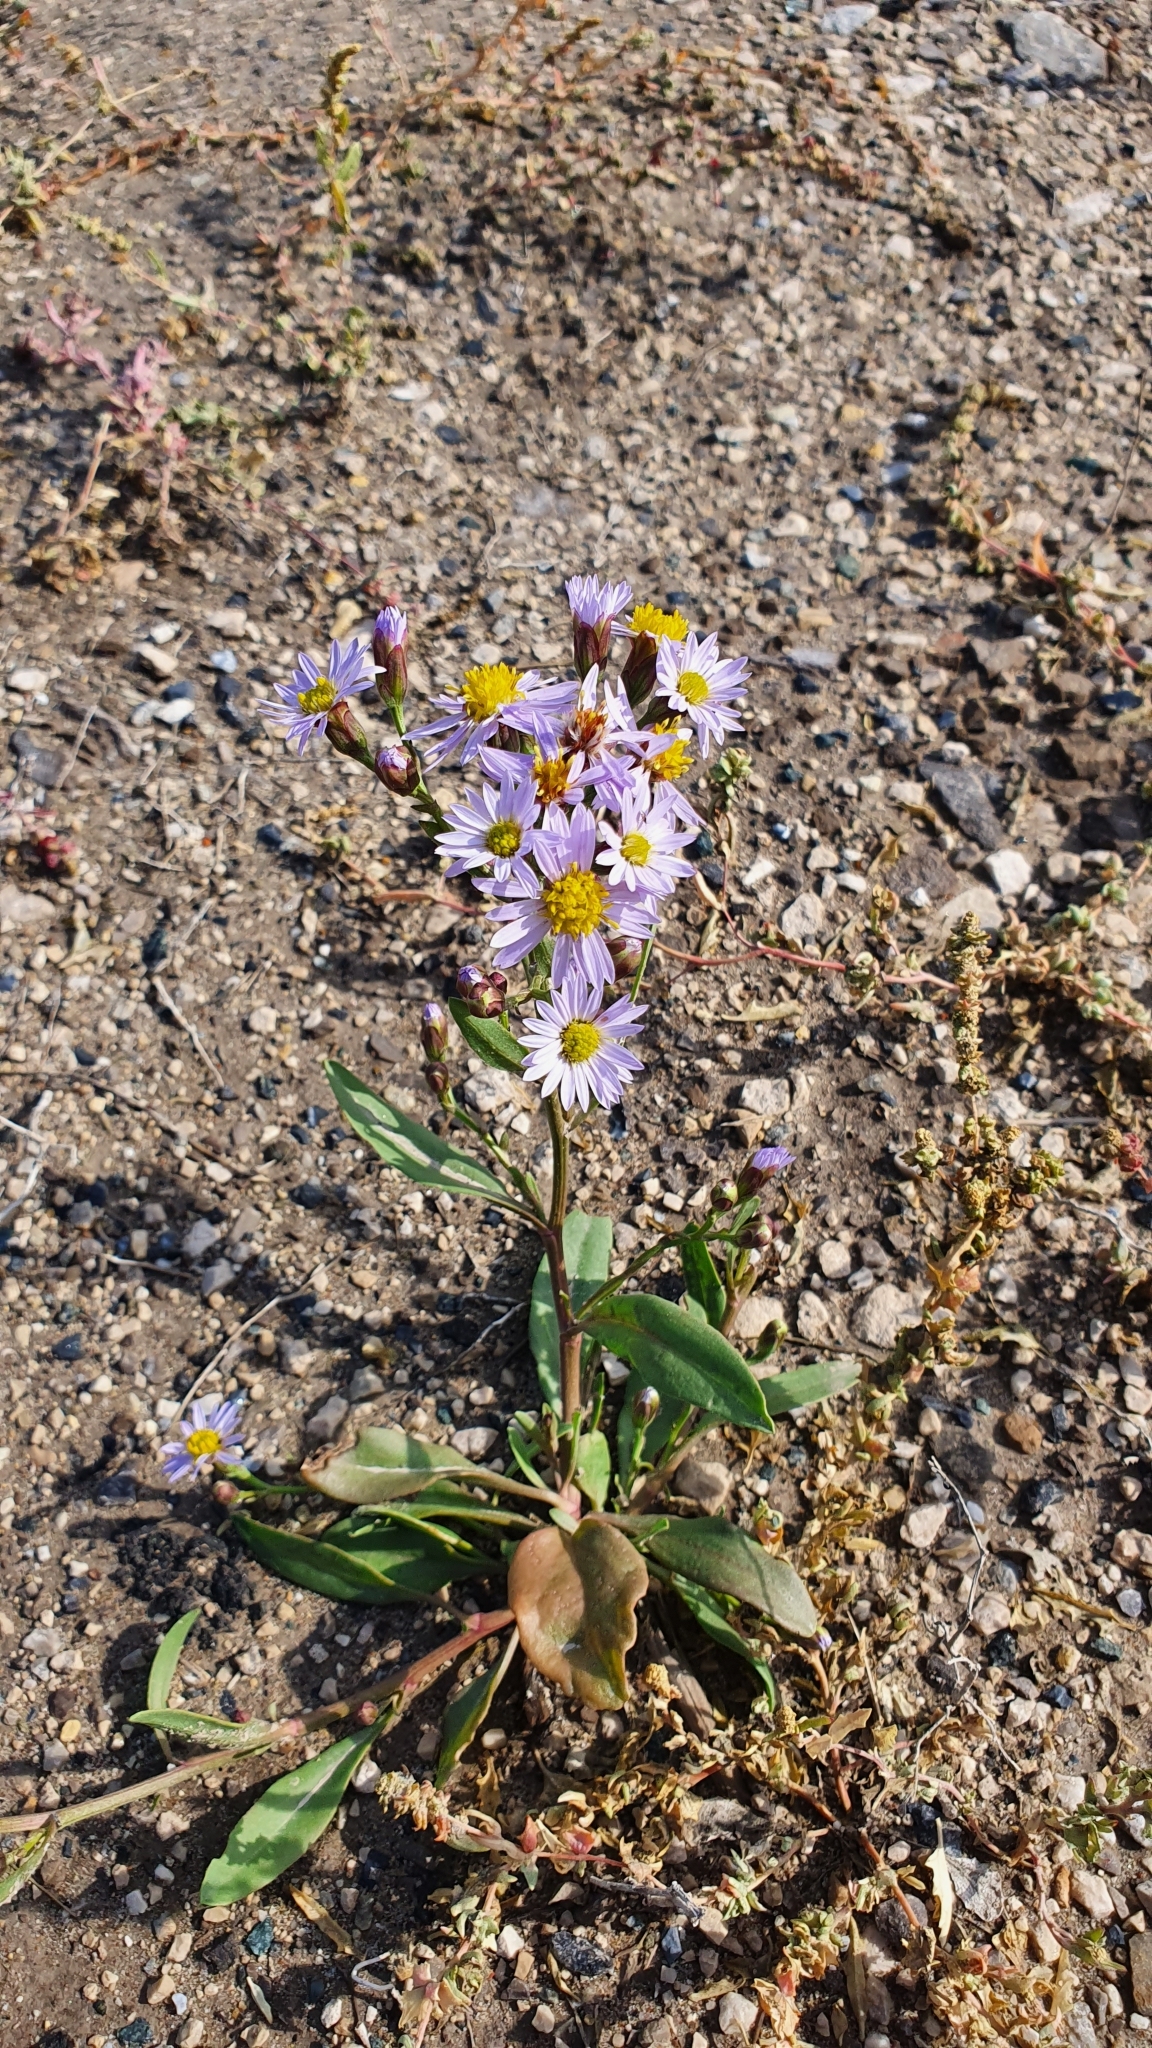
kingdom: Plantae
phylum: Tracheophyta
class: Magnoliopsida
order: Asterales
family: Asteraceae
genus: Tripolium
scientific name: Tripolium pannonicum
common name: Sea aster
